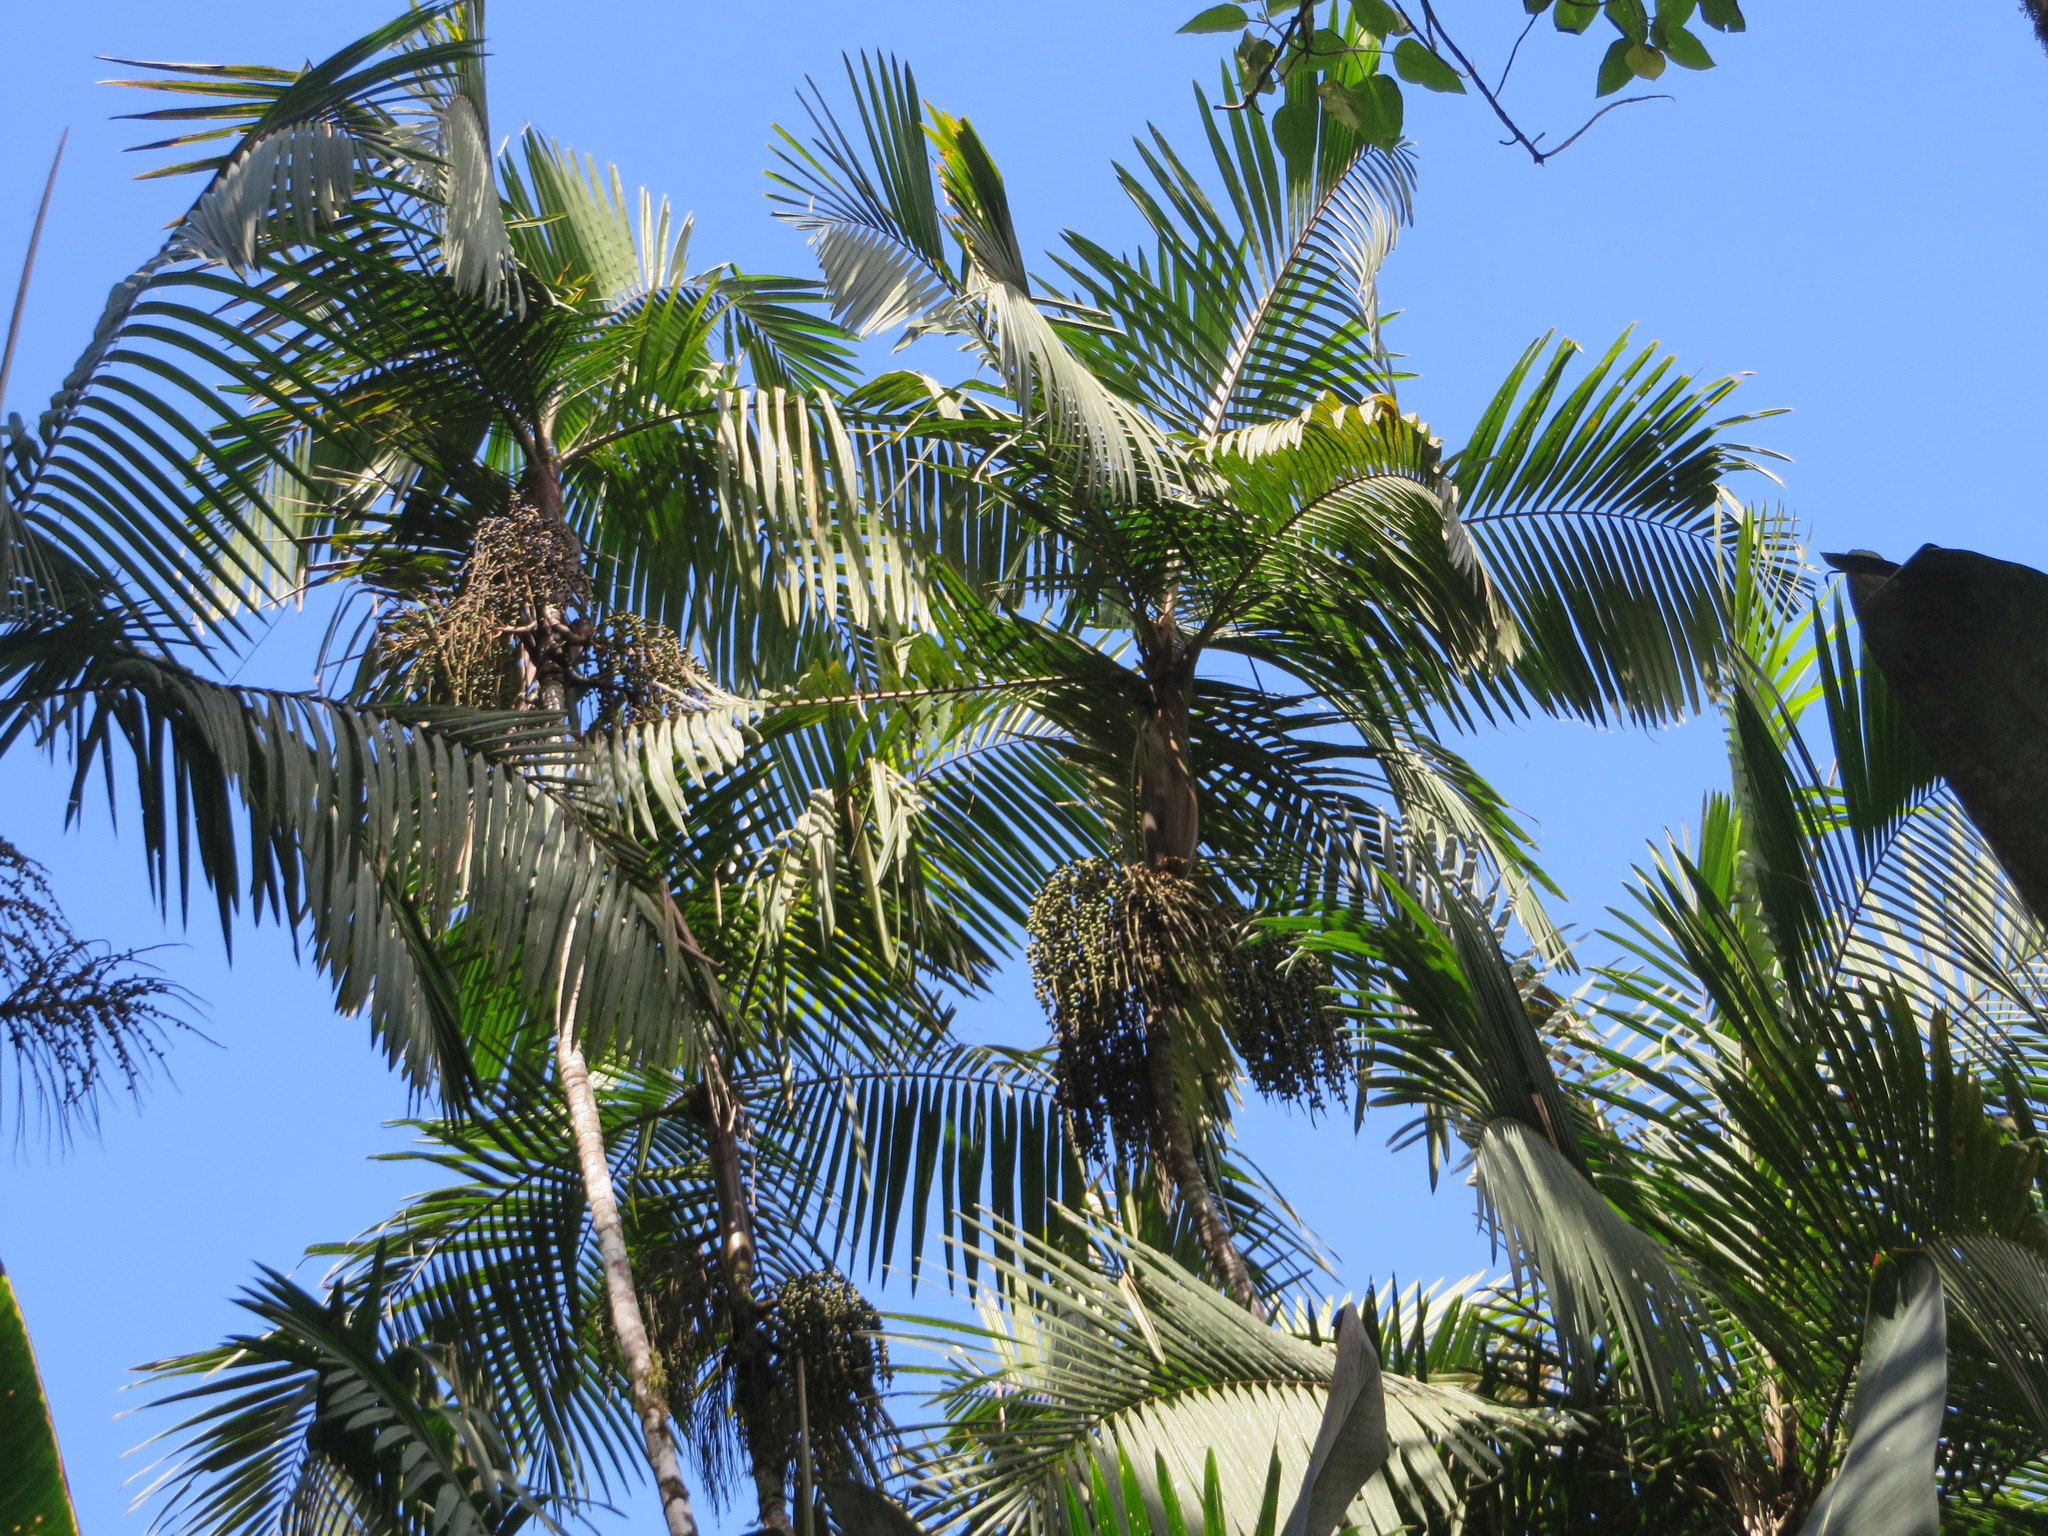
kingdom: Plantae
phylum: Tracheophyta
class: Liliopsida
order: Arecales
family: Arecaceae
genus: Prestoea
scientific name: Prestoea acuminata
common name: Sierran palm
